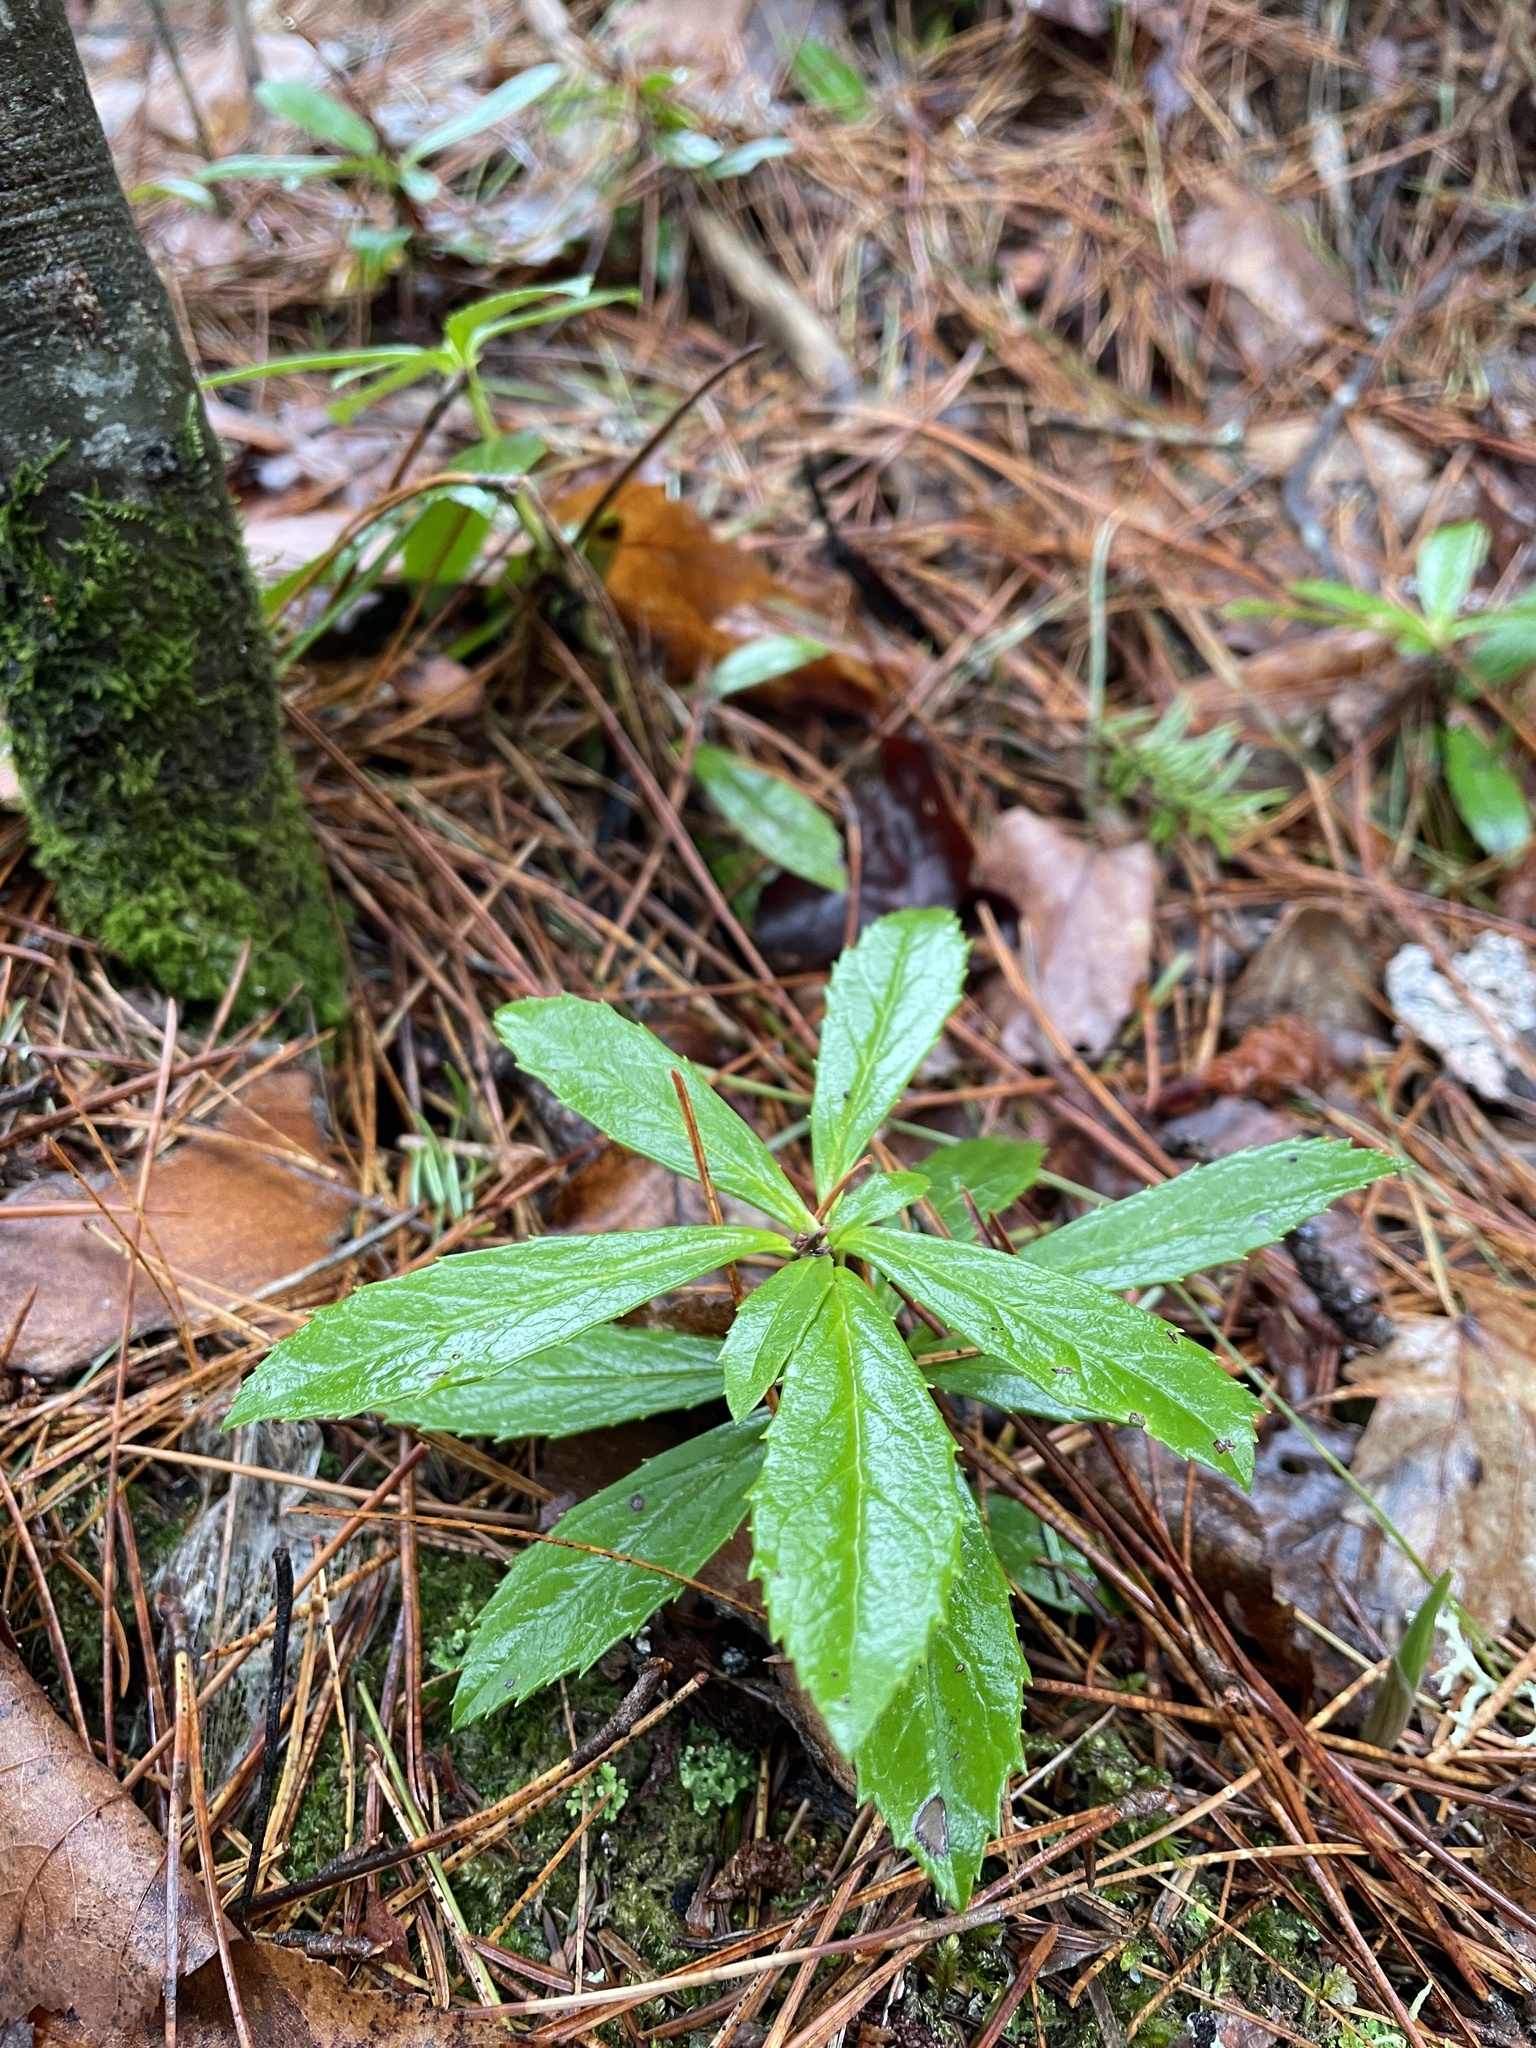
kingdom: Plantae
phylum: Tracheophyta
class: Magnoliopsida
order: Ericales
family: Ericaceae
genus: Chimaphila
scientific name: Chimaphila umbellata
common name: Pipsissewa
